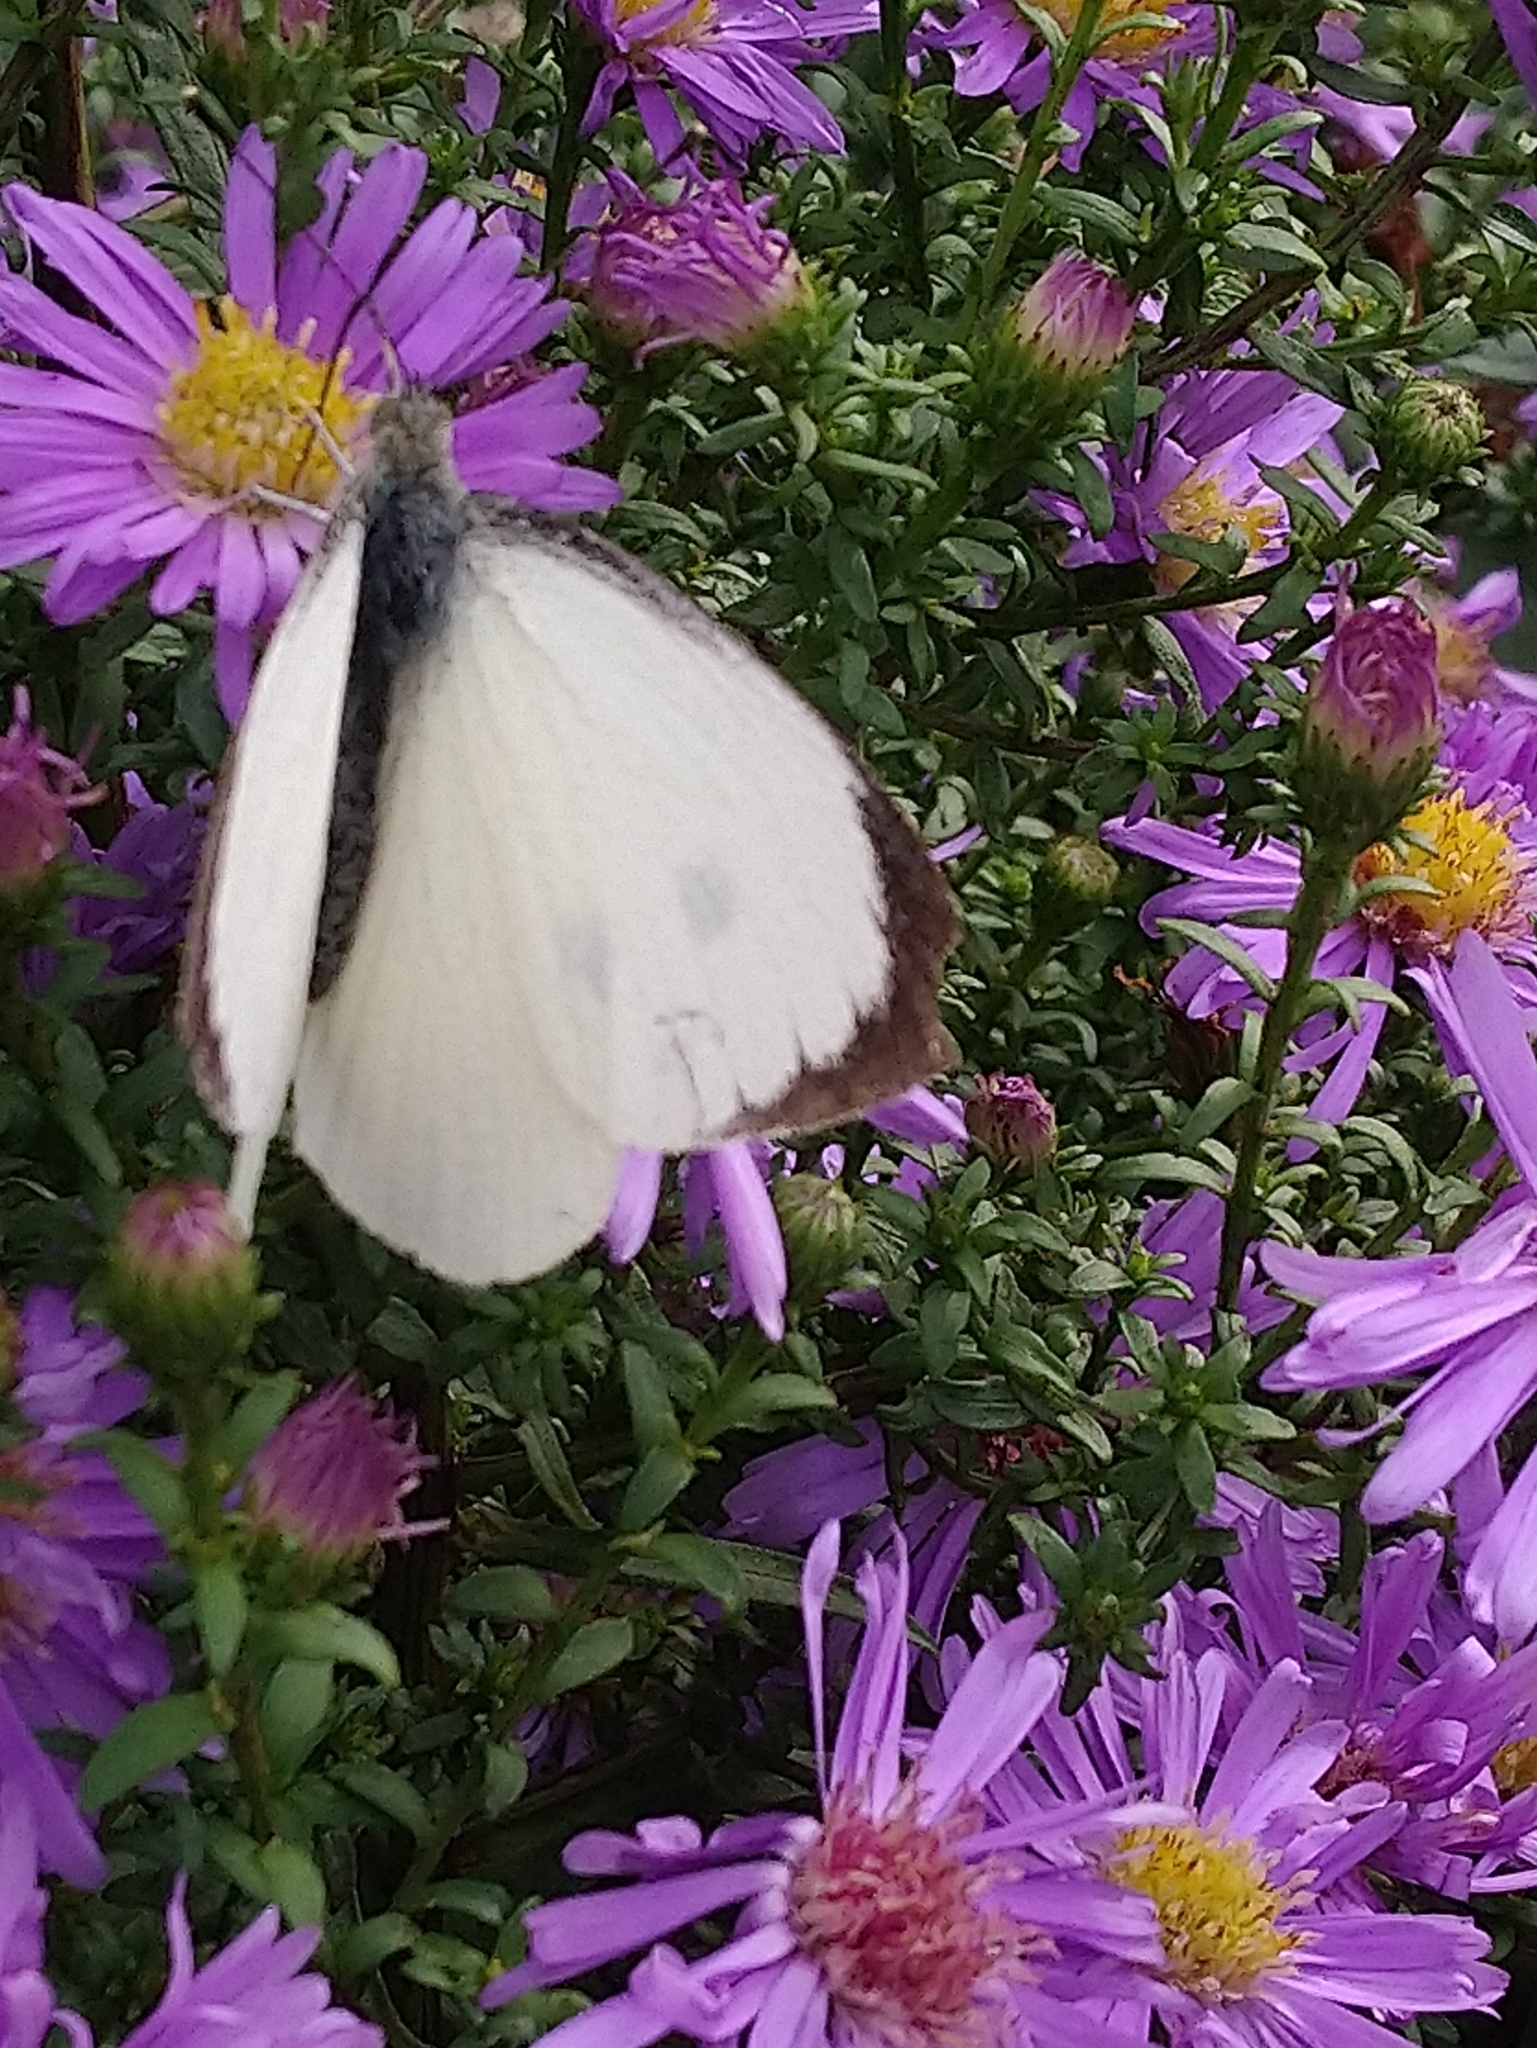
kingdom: Animalia
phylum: Arthropoda
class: Insecta
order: Lepidoptera
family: Pieridae
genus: Pieris
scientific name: Pieris brassicae
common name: Large white
